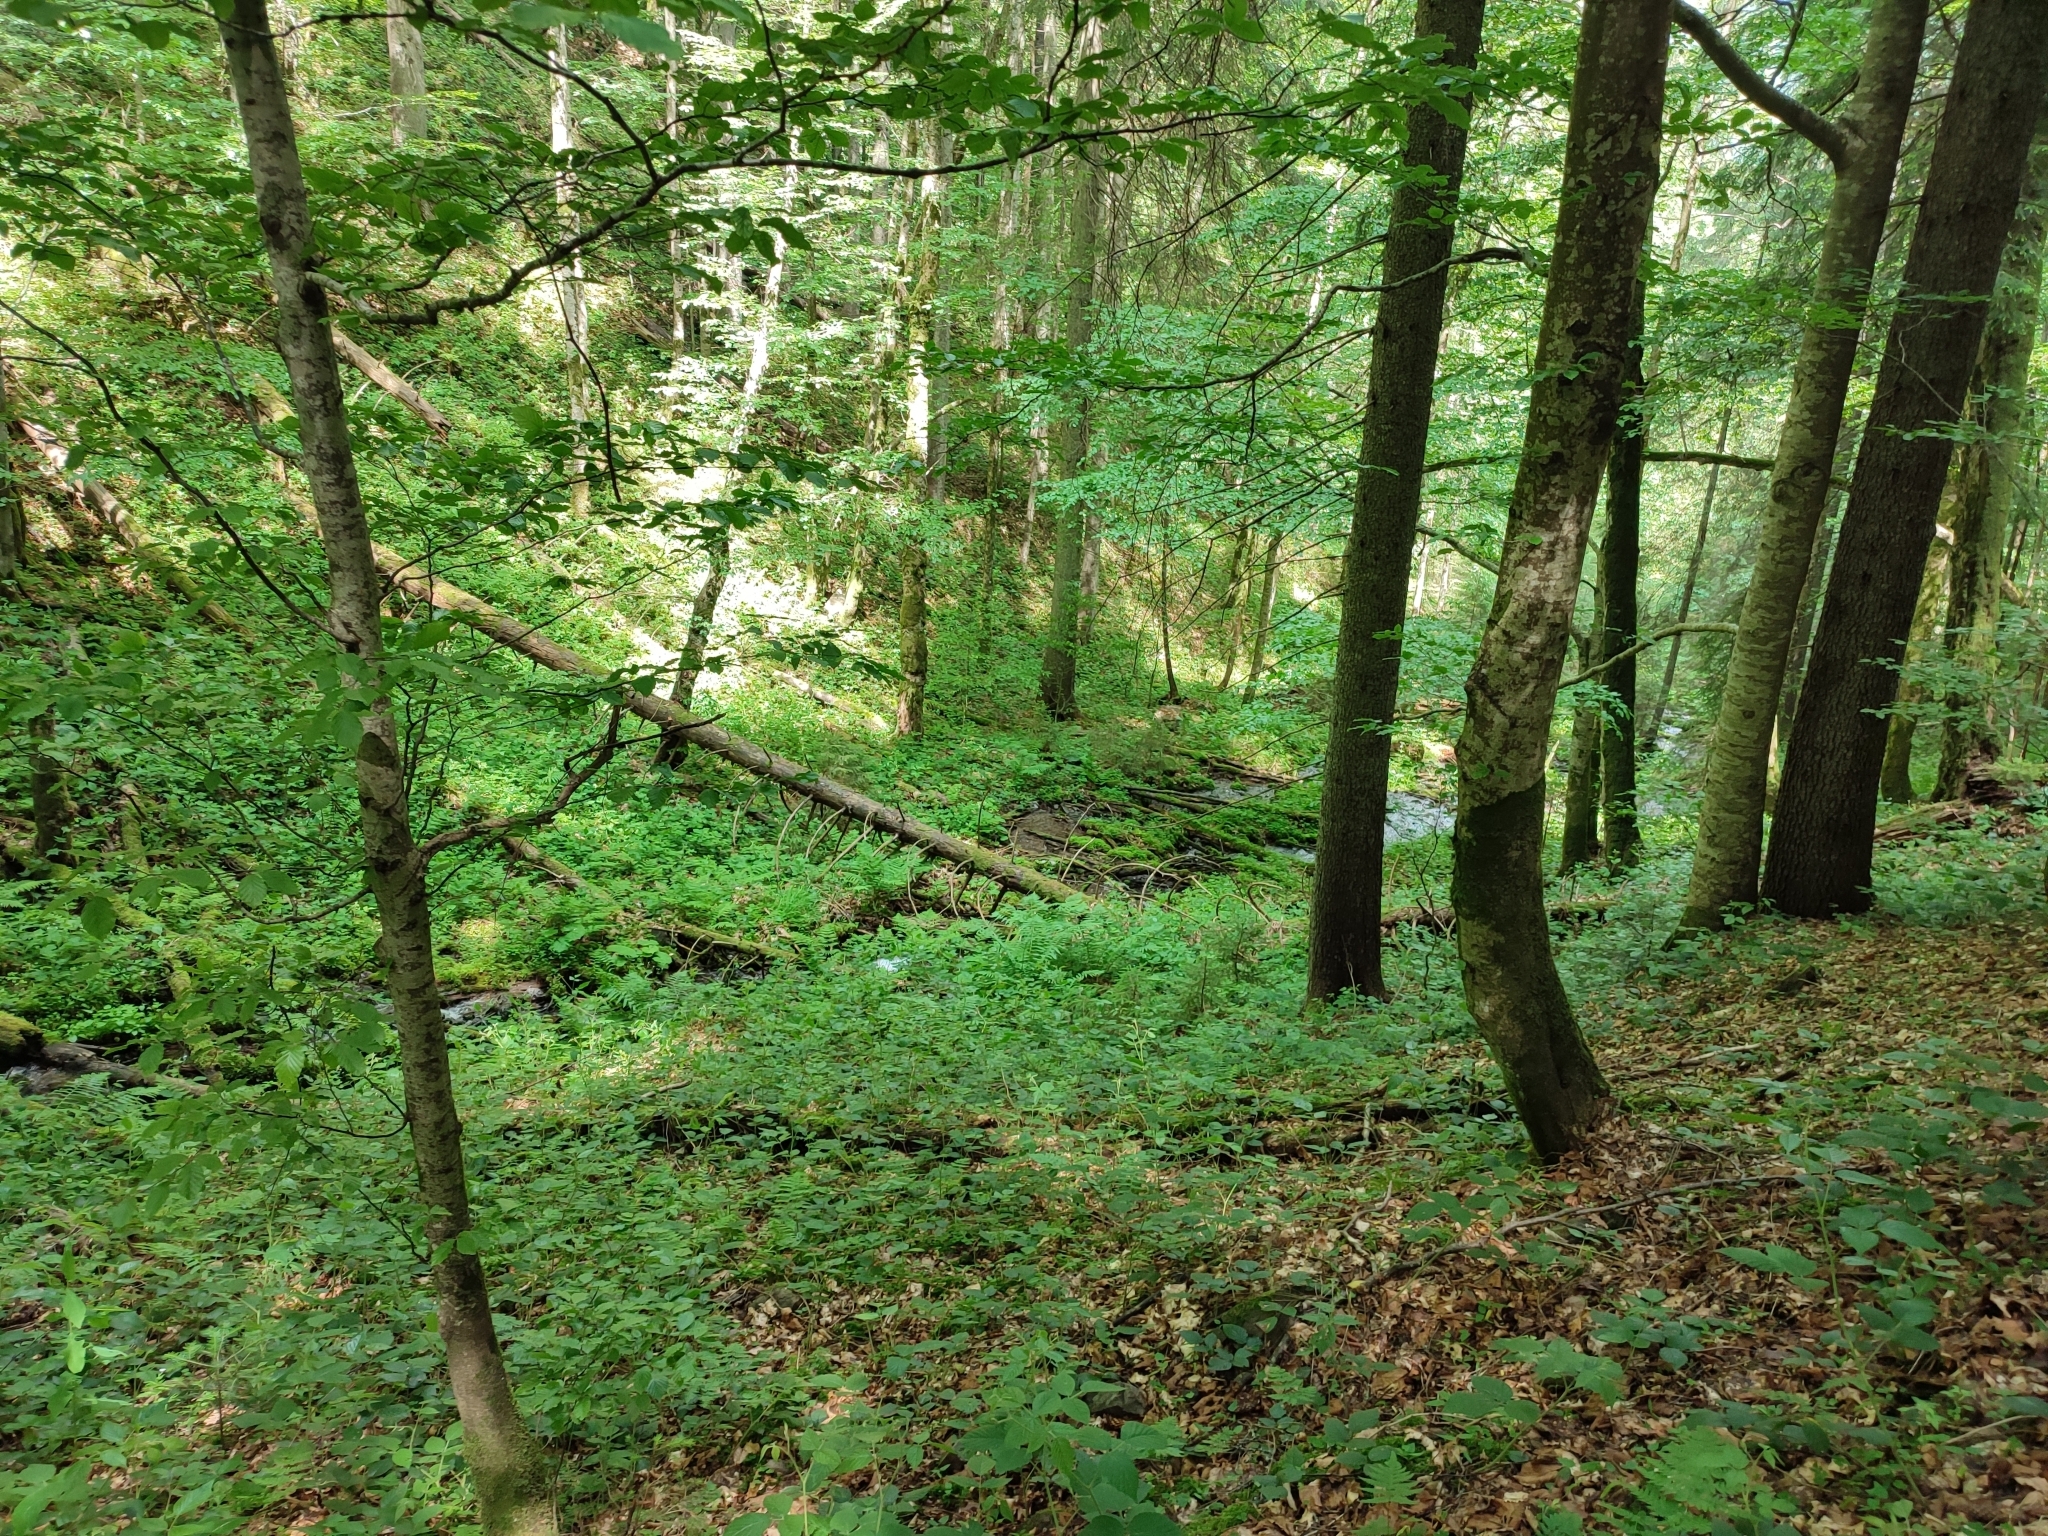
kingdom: Plantae
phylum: Tracheophyta
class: Magnoliopsida
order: Fagales
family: Fagaceae
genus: Fagus
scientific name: Fagus sylvatica
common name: Beech
